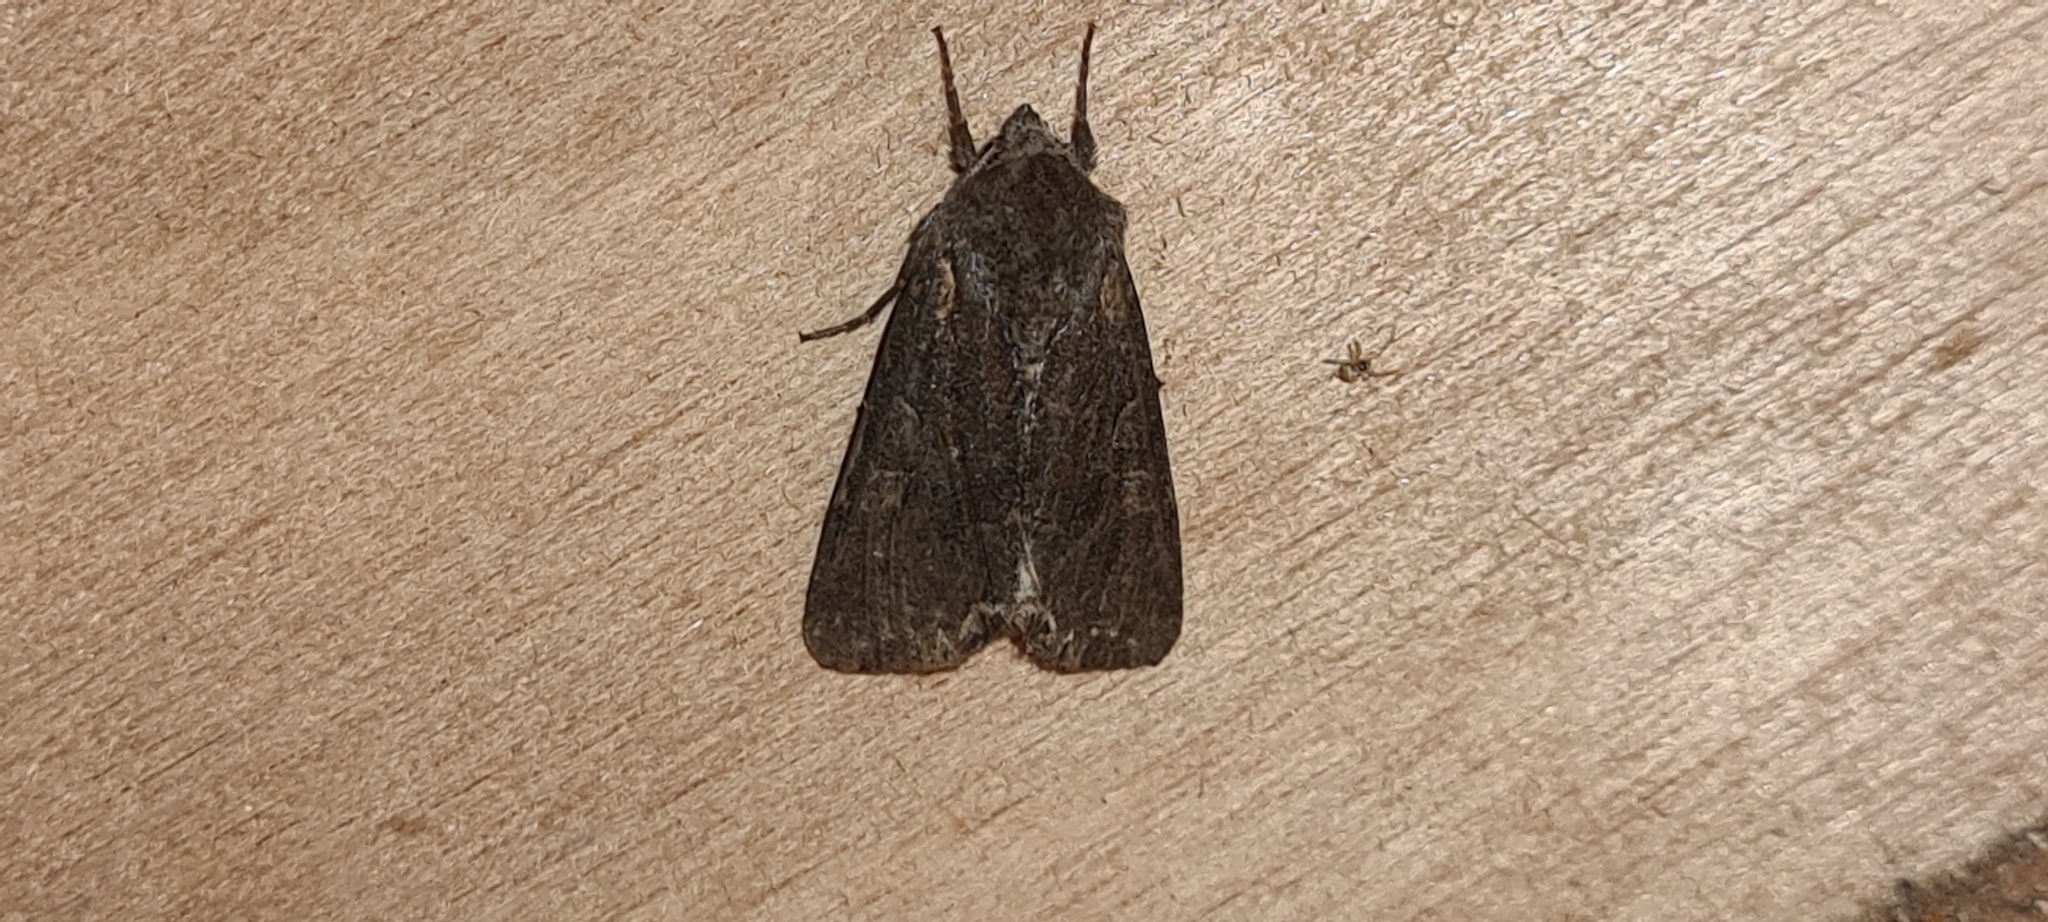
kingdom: Animalia
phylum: Arthropoda
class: Insecta
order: Lepidoptera
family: Noctuidae
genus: Lacanobia
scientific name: Lacanobia suasa
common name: Dog's tooth
